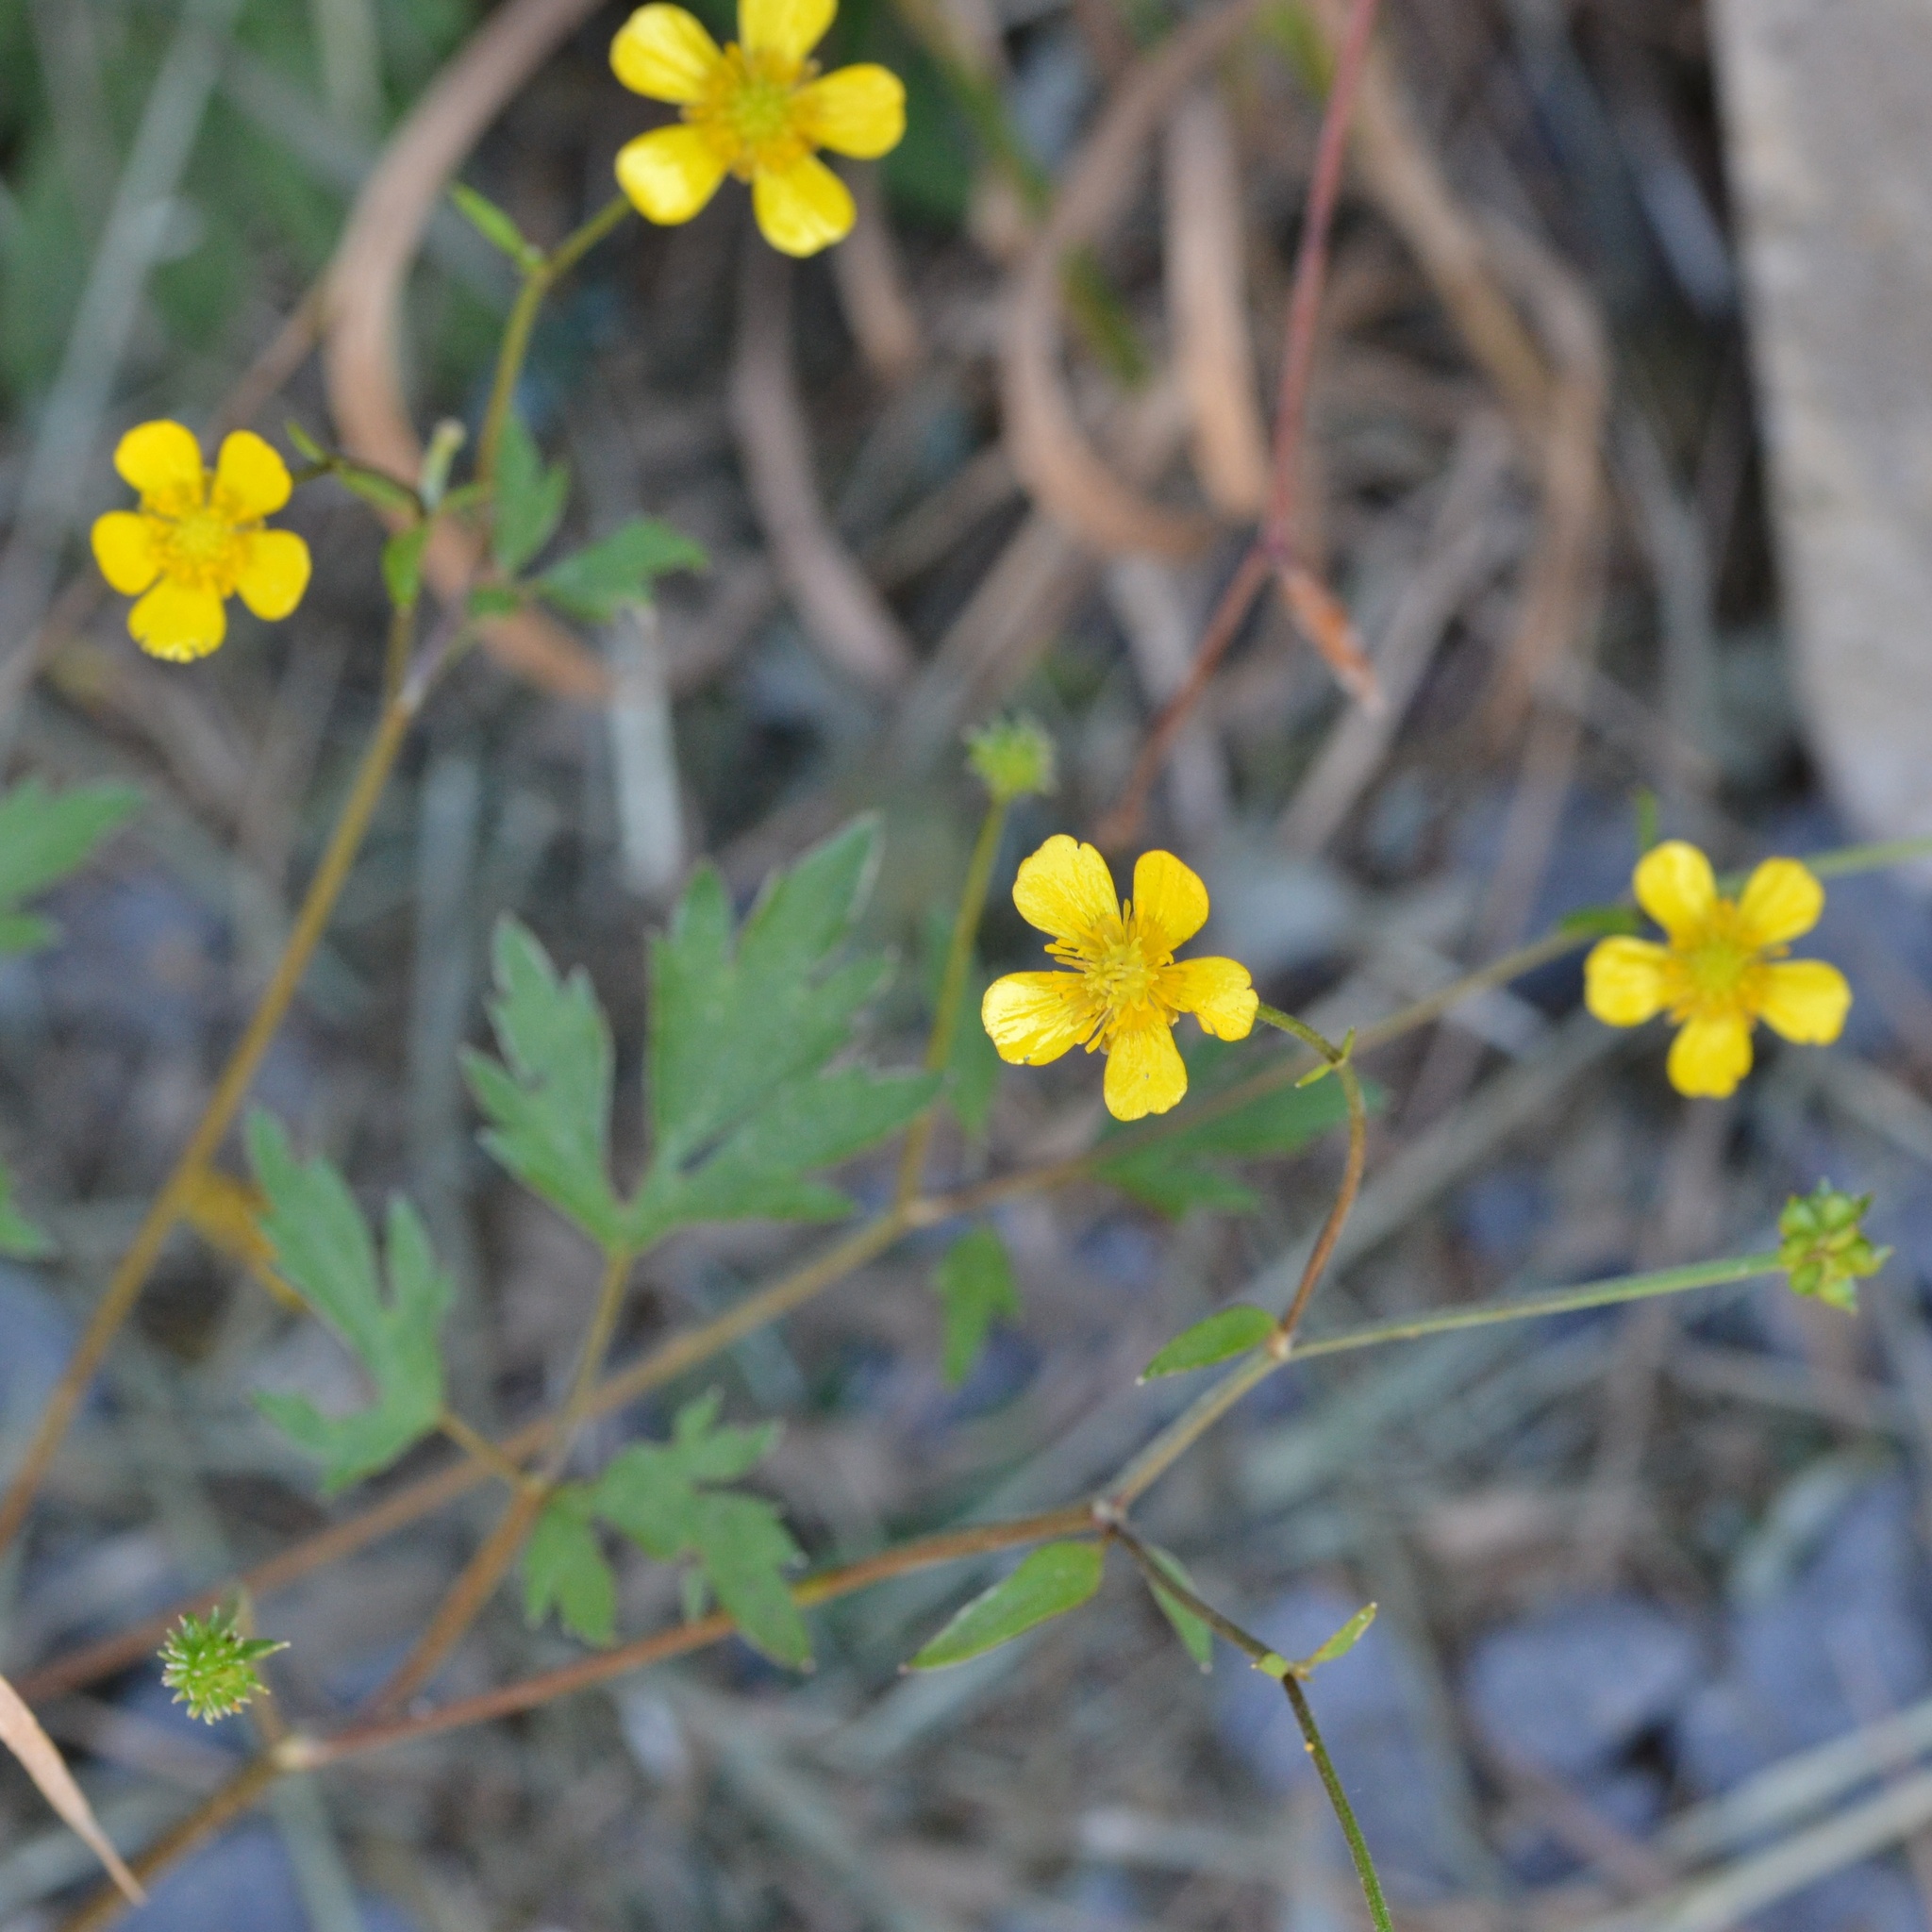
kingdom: Plantae
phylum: Tracheophyta
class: Magnoliopsida
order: Ranunculales
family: Ranunculaceae
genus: Ranunculus
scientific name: Ranunculus repens
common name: Creeping buttercup
